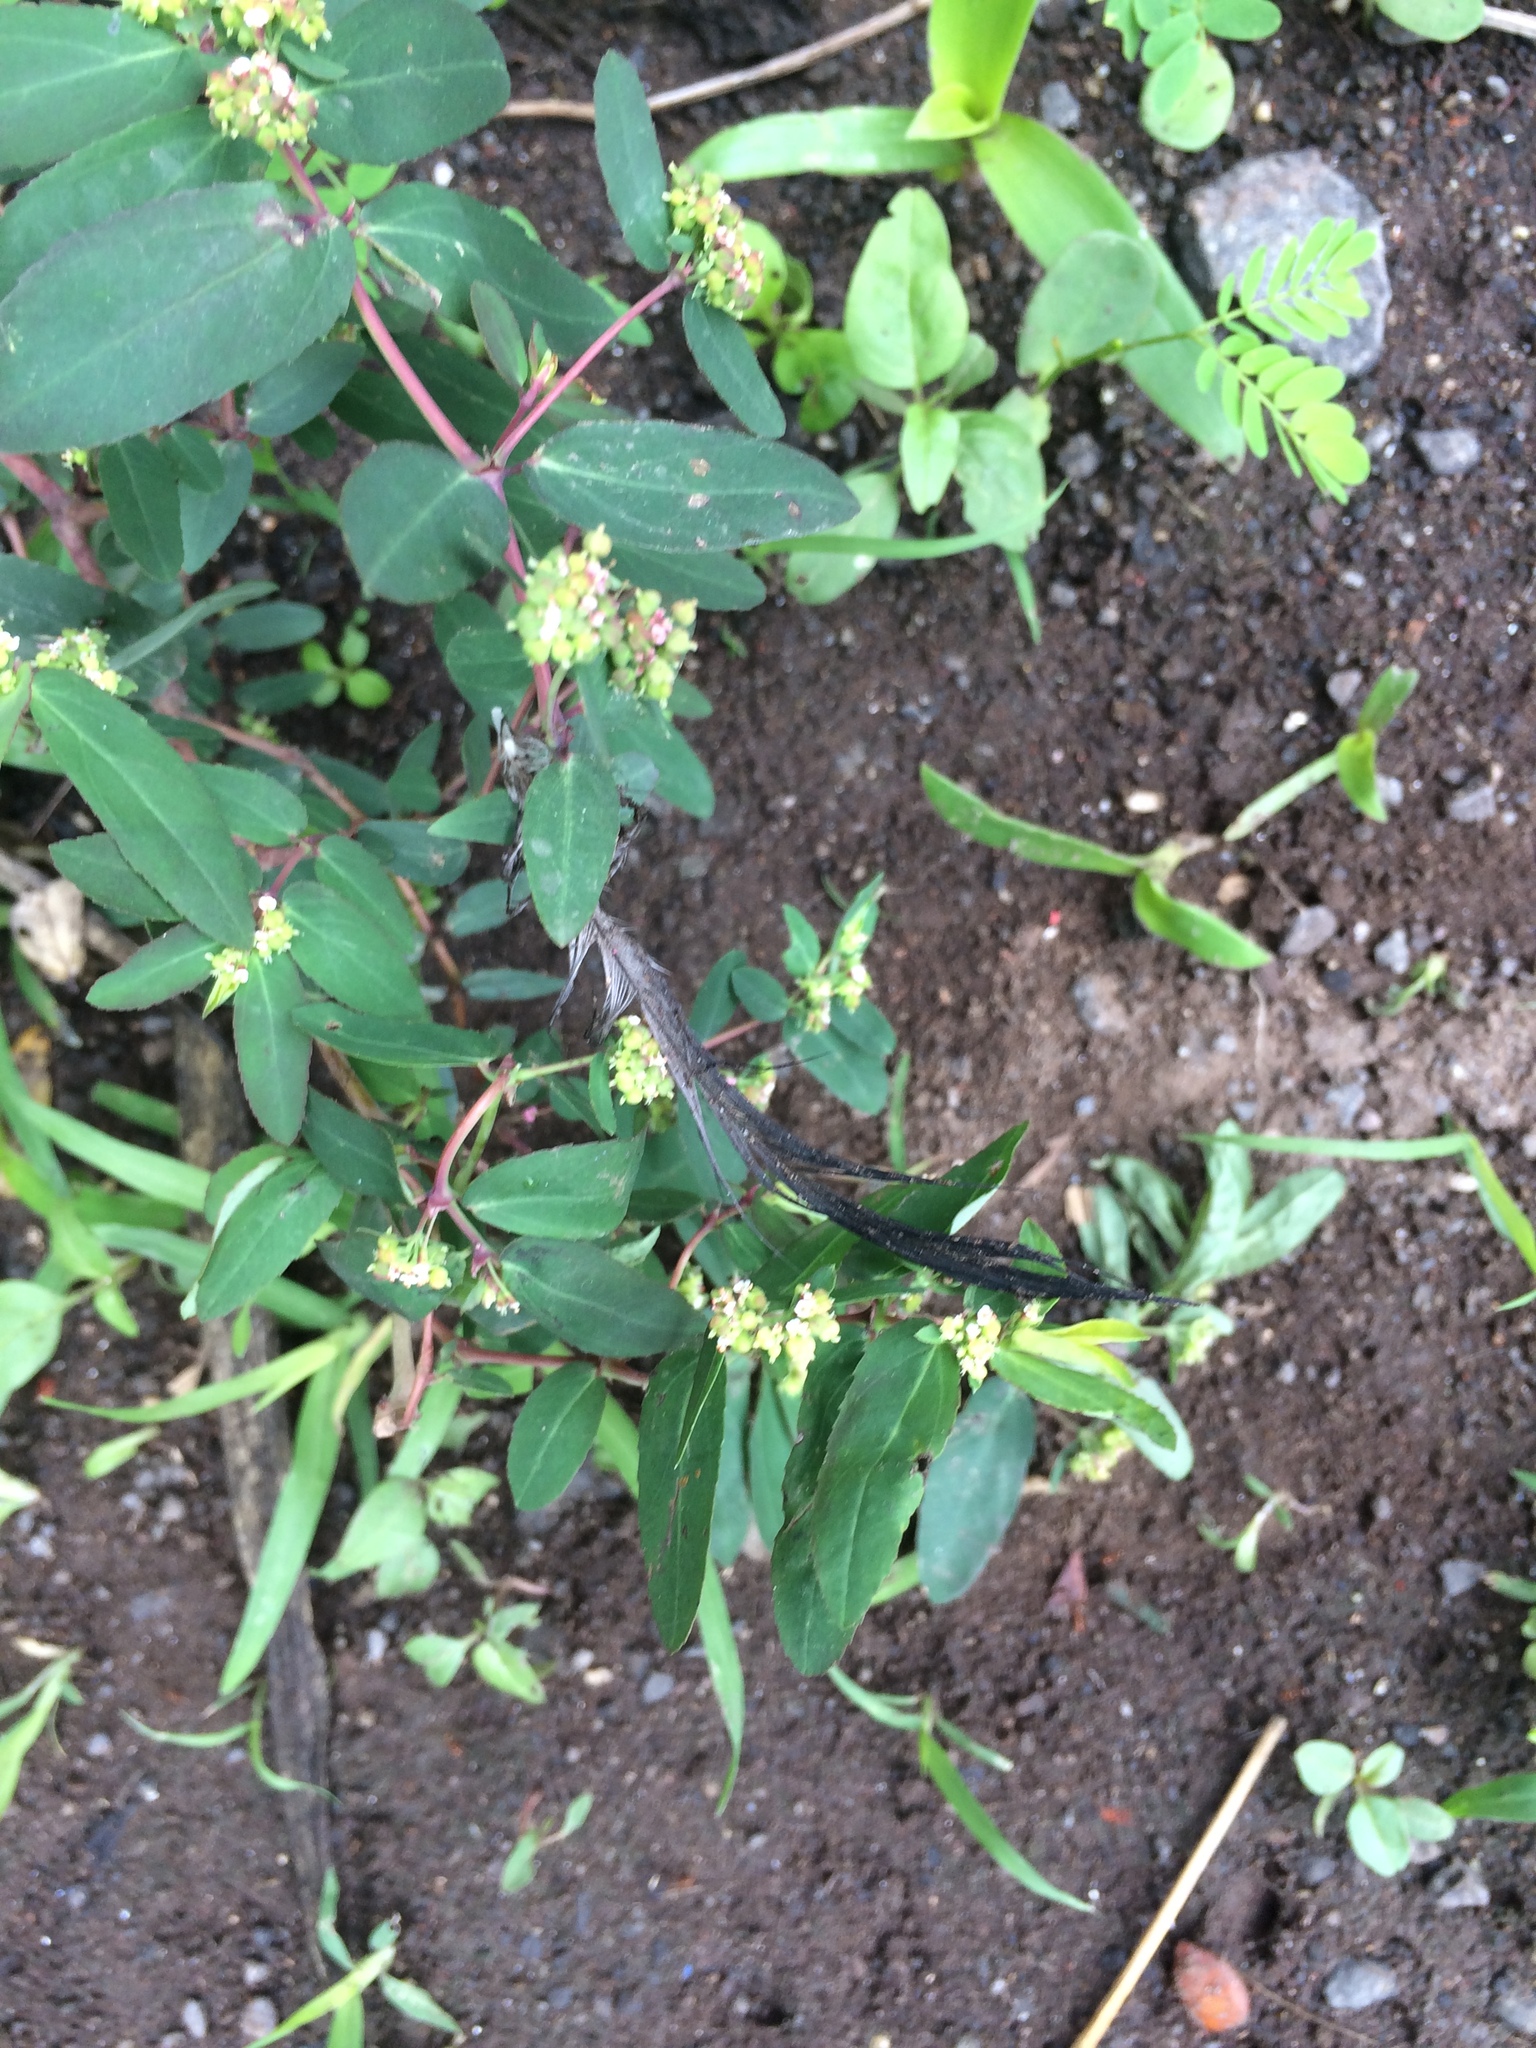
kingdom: Plantae
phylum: Tracheophyta
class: Magnoliopsida
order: Malpighiales
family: Euphorbiaceae
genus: Euphorbia
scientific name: Euphorbia hypericifolia
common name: Graceful sandmat
